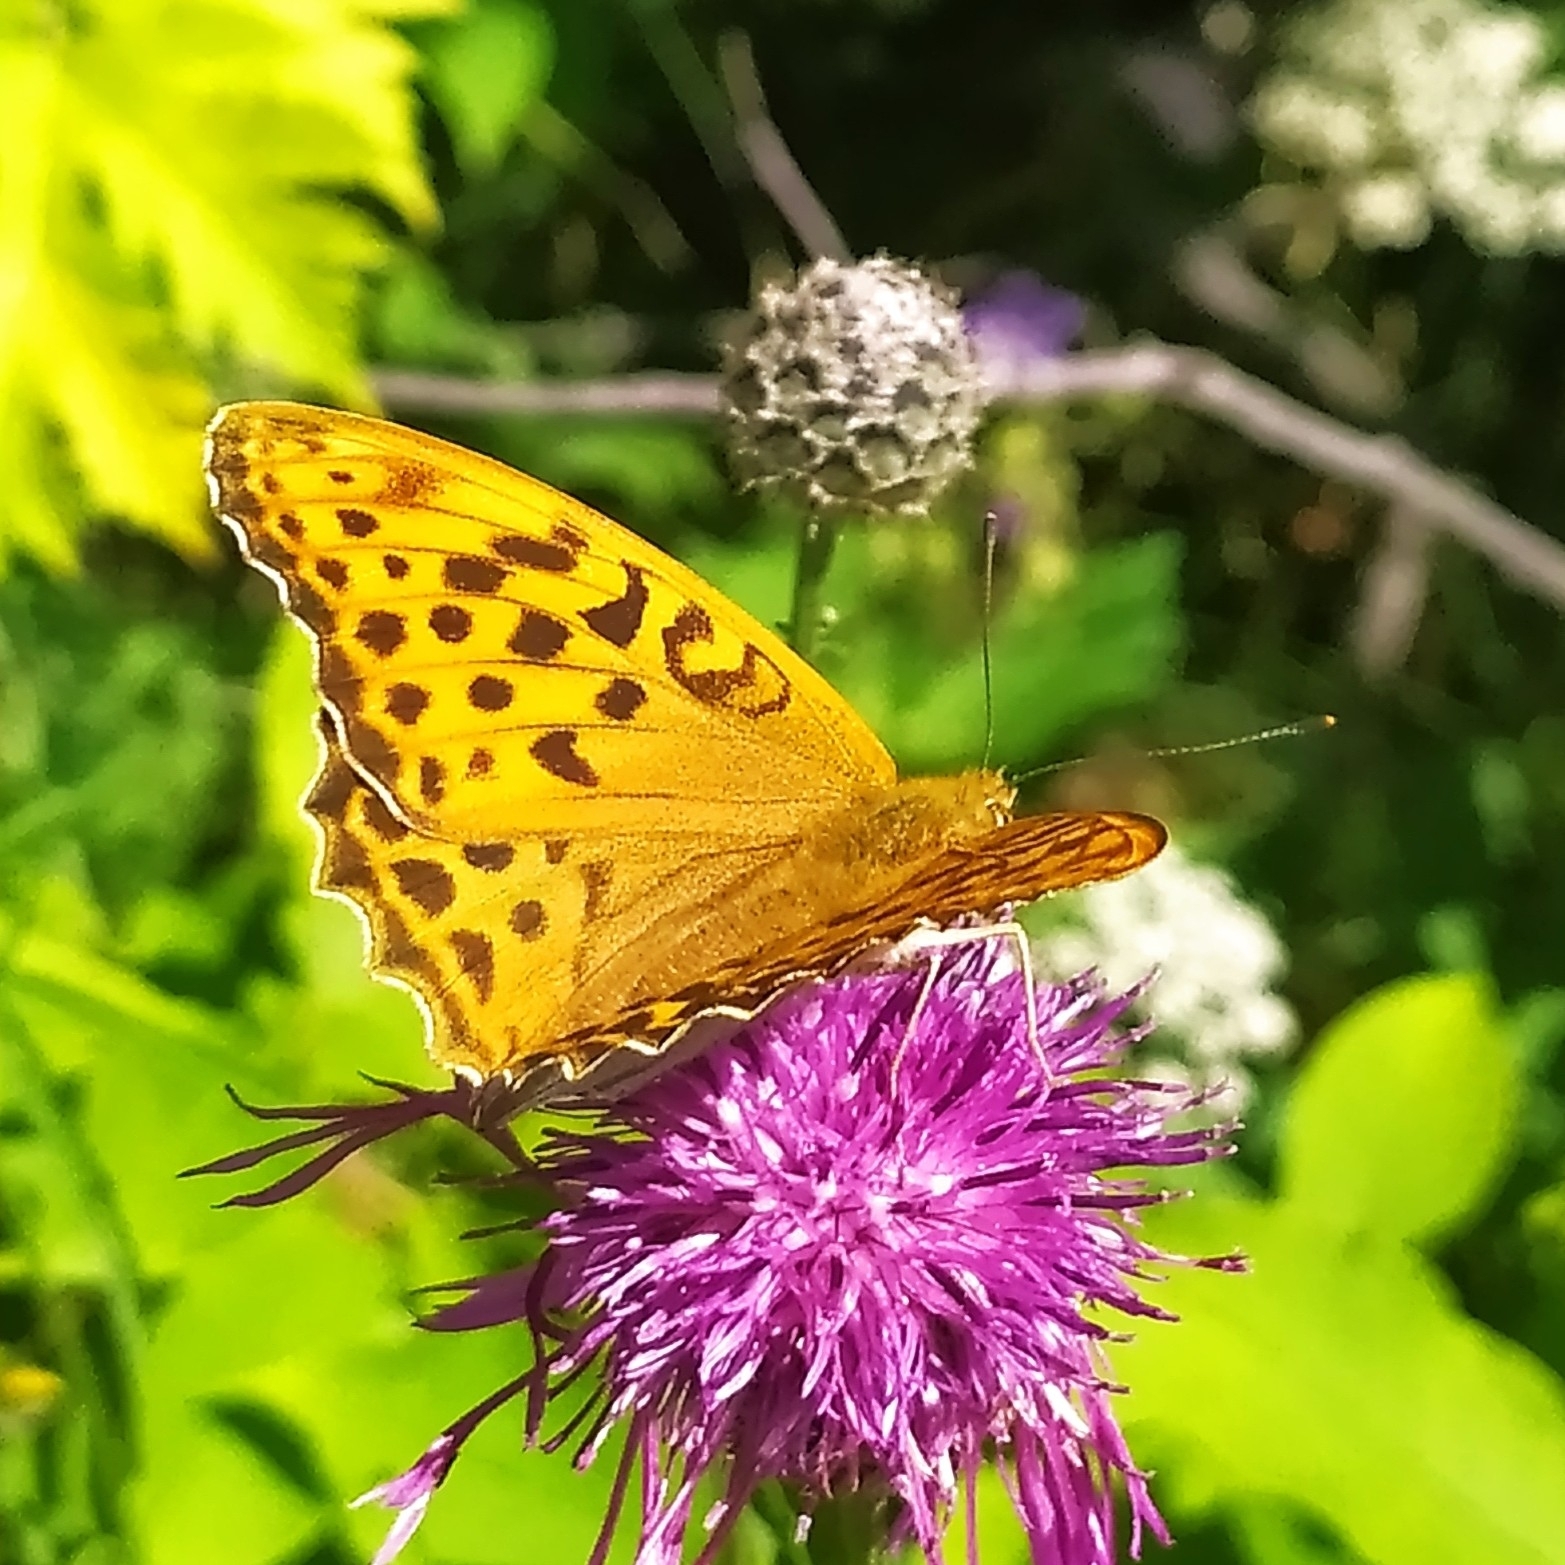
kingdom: Animalia
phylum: Arthropoda
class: Insecta
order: Lepidoptera
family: Nymphalidae
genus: Argynnis
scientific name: Argynnis paphia
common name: Silver-washed fritillary
